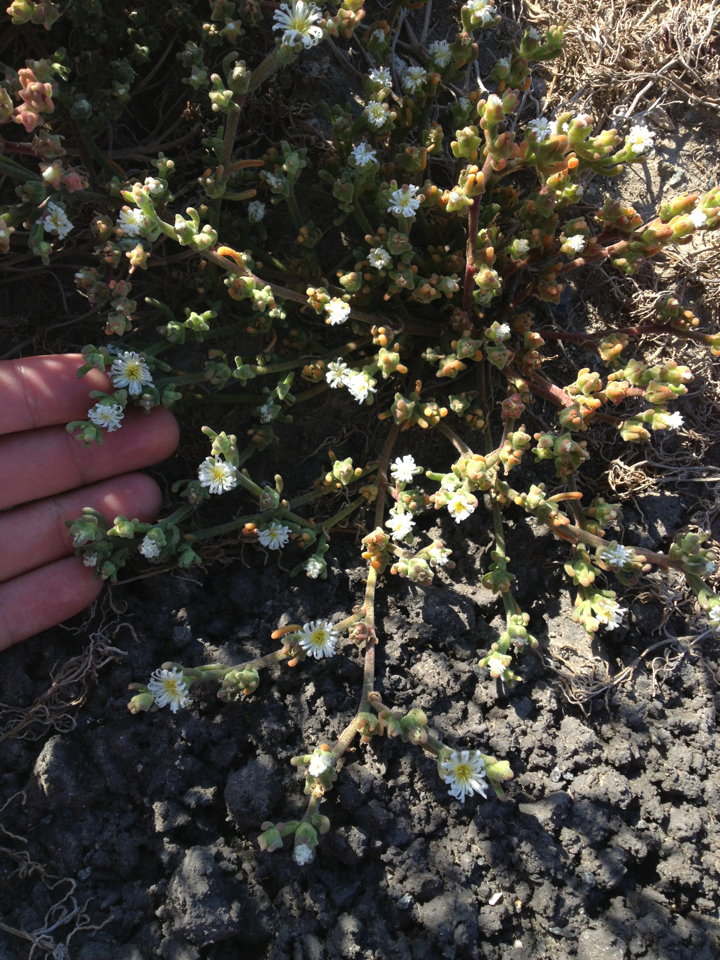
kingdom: Plantae
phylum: Tracheophyta
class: Magnoliopsida
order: Caryophyllales
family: Aizoaceae
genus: Mesembryanthemum
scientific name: Mesembryanthemum nodiflorum
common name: Slenderleaf iceplant
